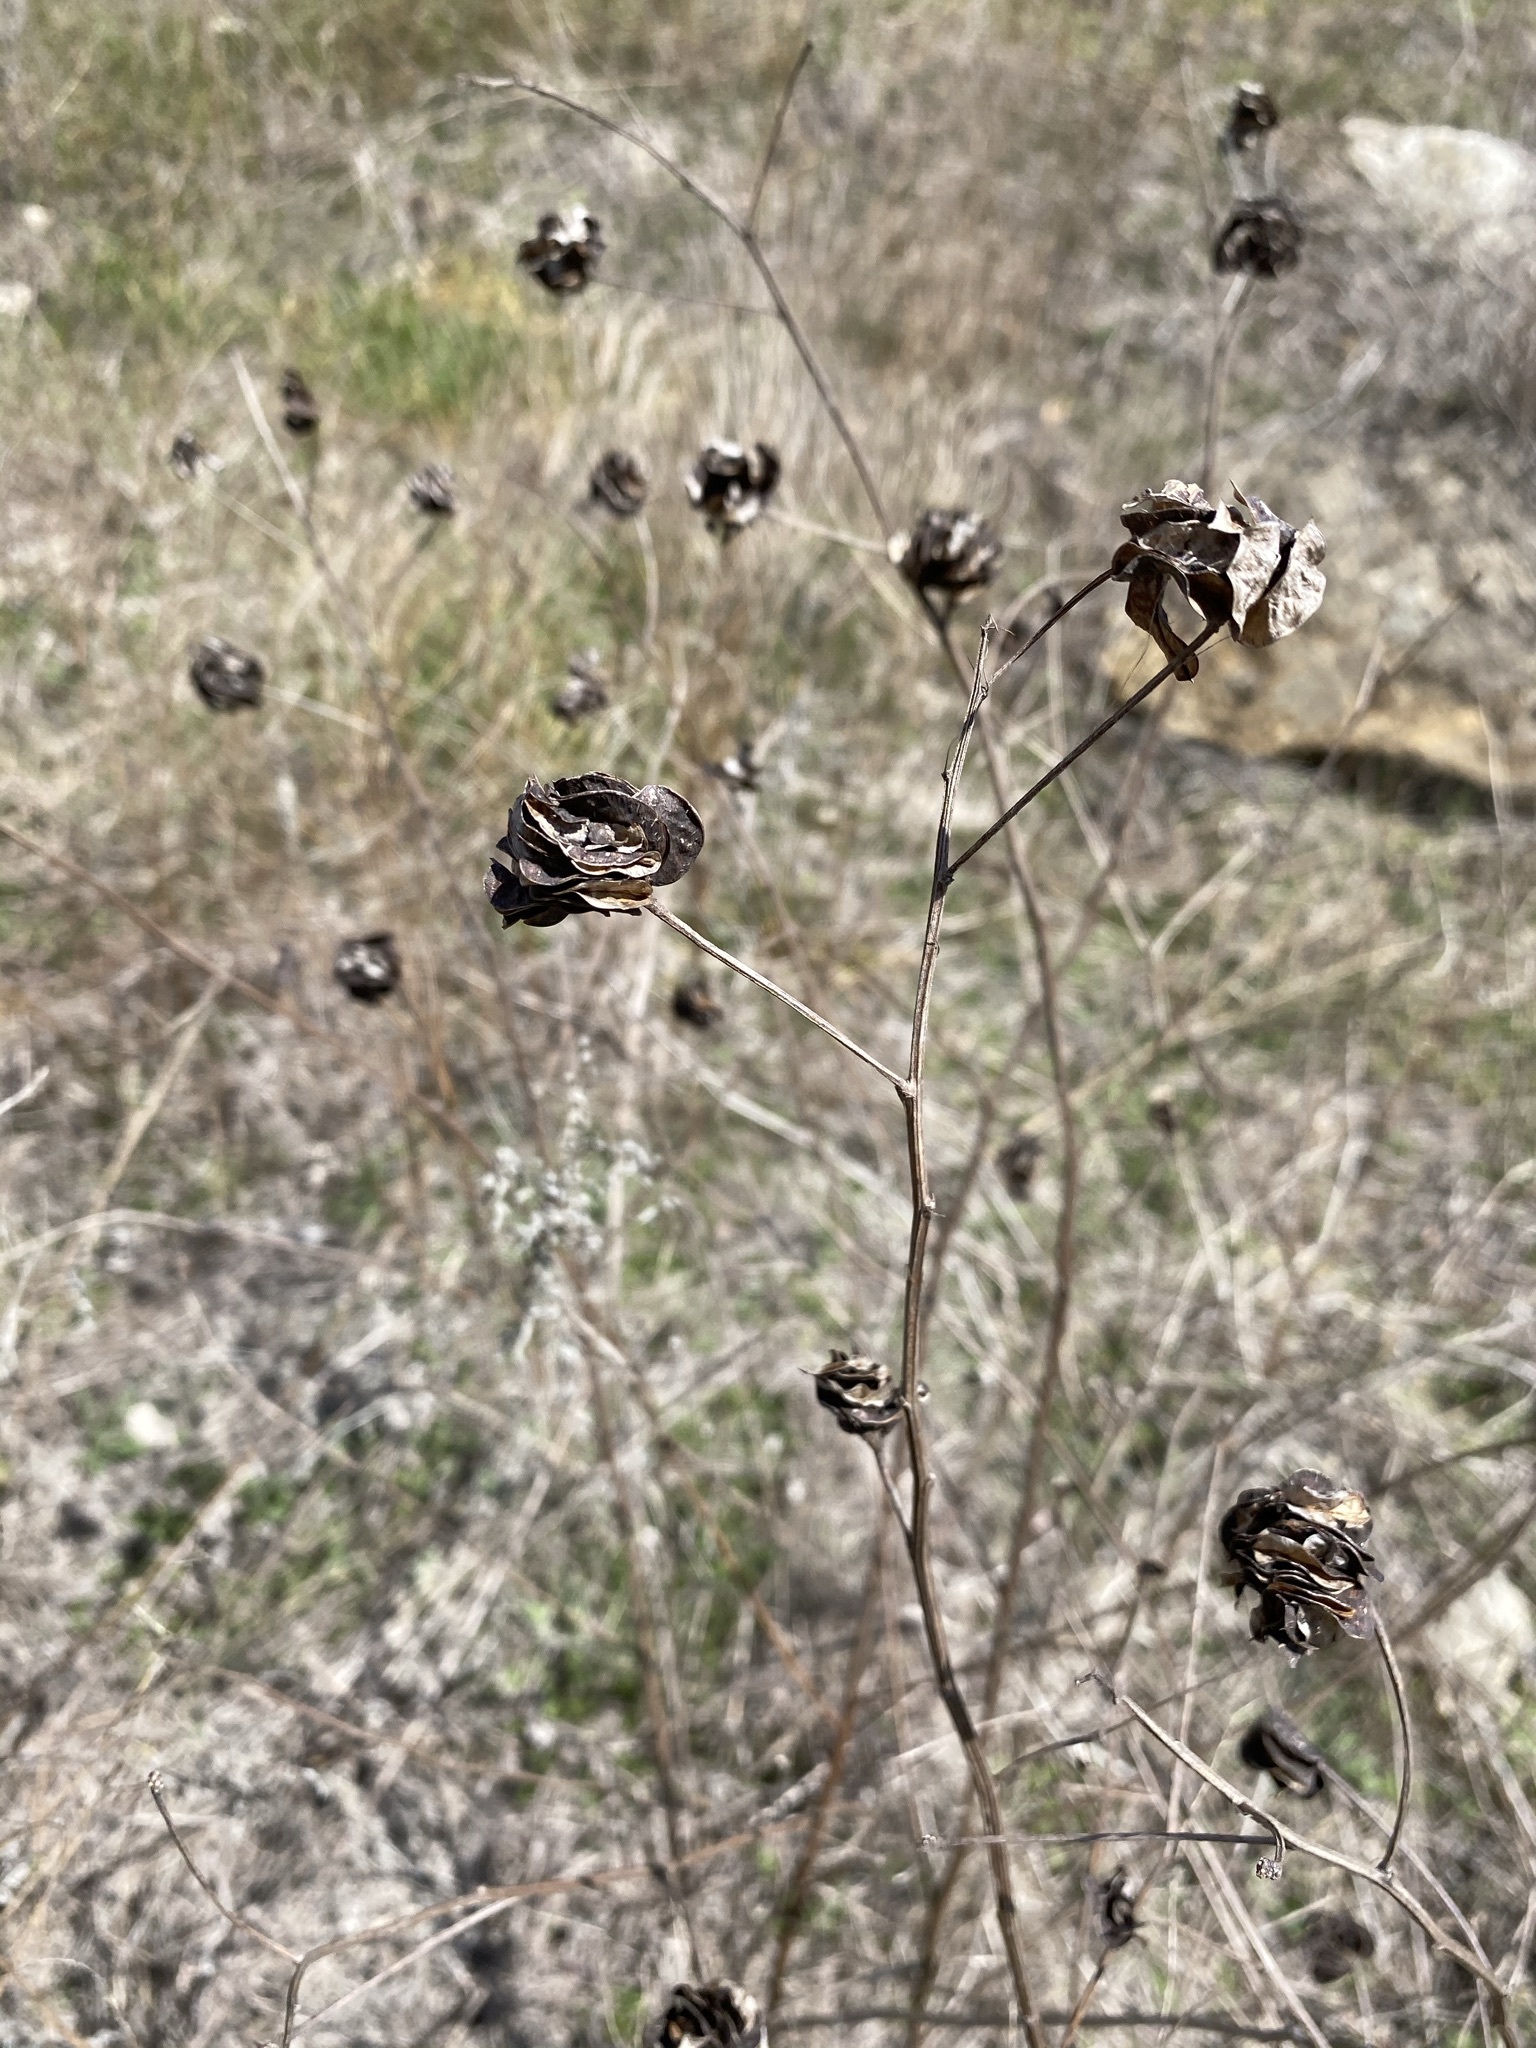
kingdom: Plantae
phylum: Tracheophyta
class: Magnoliopsida
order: Fabales
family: Fabaceae
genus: Desmanthus
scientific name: Desmanthus illinoensis
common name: Illinois bundle-flower
